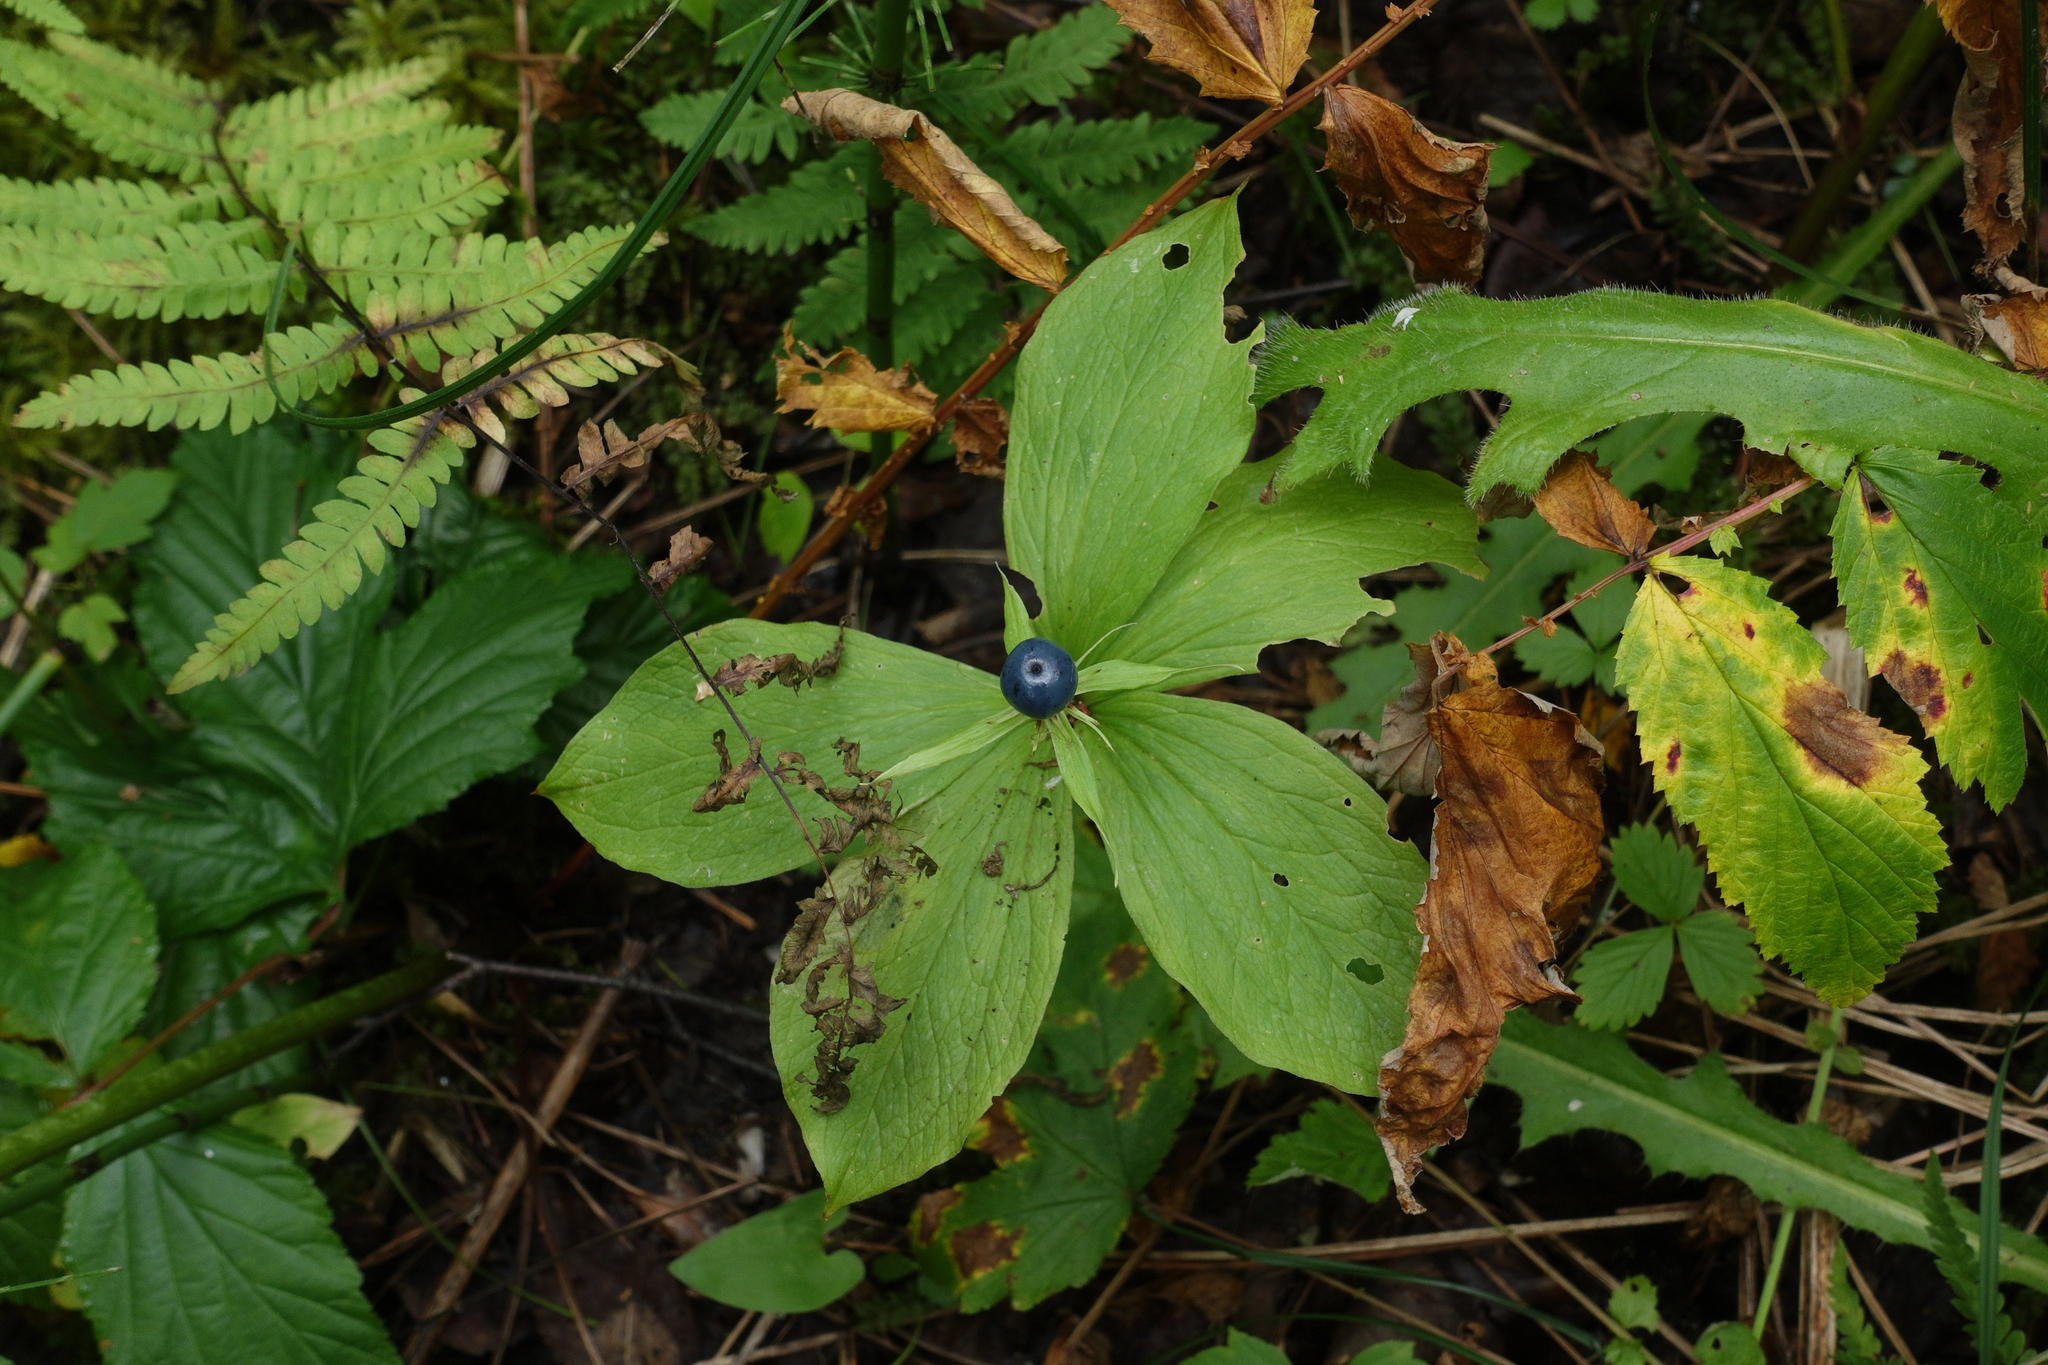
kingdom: Plantae
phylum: Tracheophyta
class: Liliopsida
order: Liliales
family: Melanthiaceae
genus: Paris
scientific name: Paris quadrifolia
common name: Herb-paris
